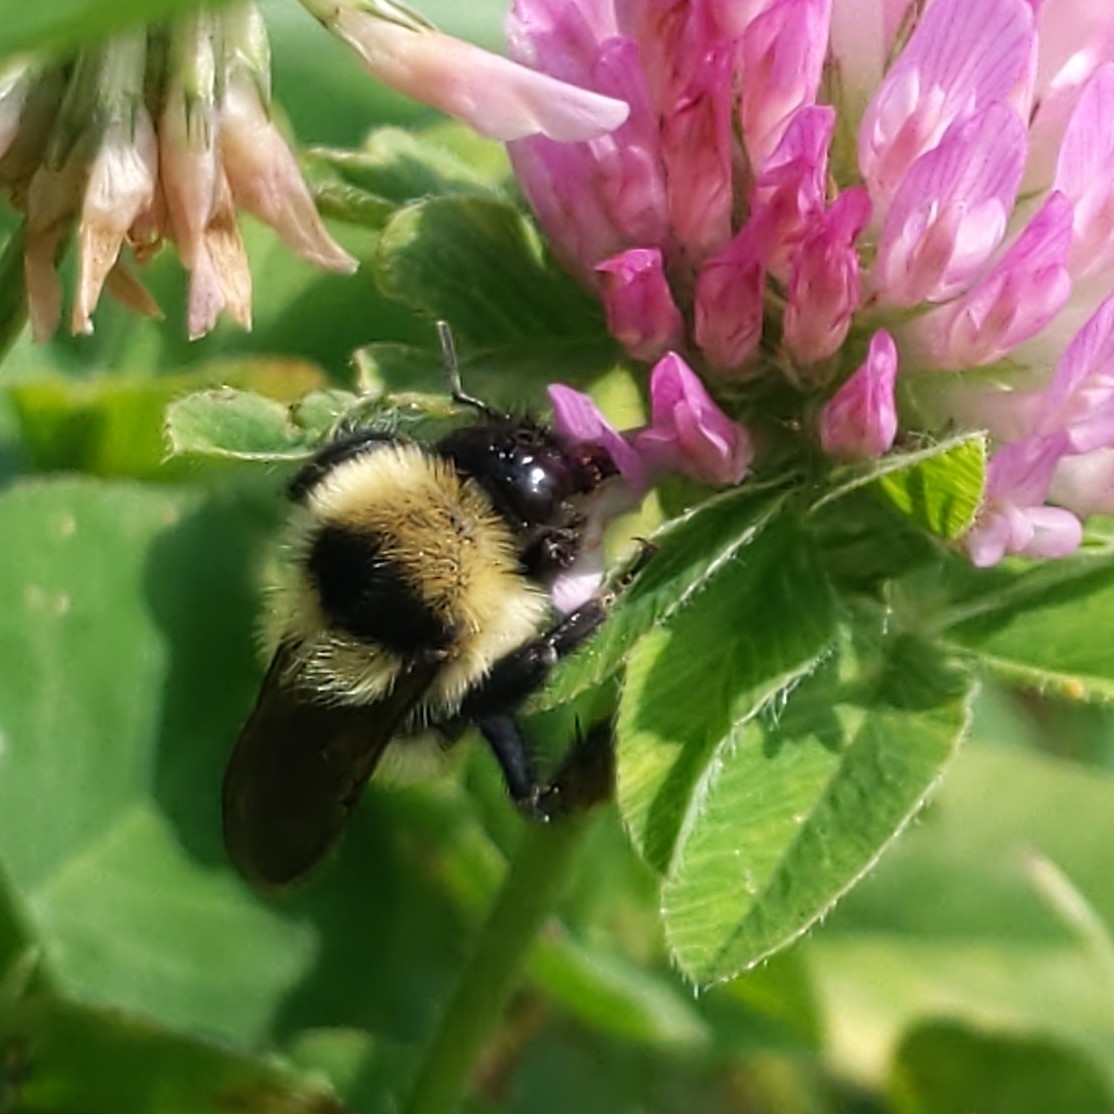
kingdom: Animalia
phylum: Arthropoda
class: Insecta
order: Hymenoptera
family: Apidae
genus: Bombus
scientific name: Bombus fervidus
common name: Yellow bumble bee
